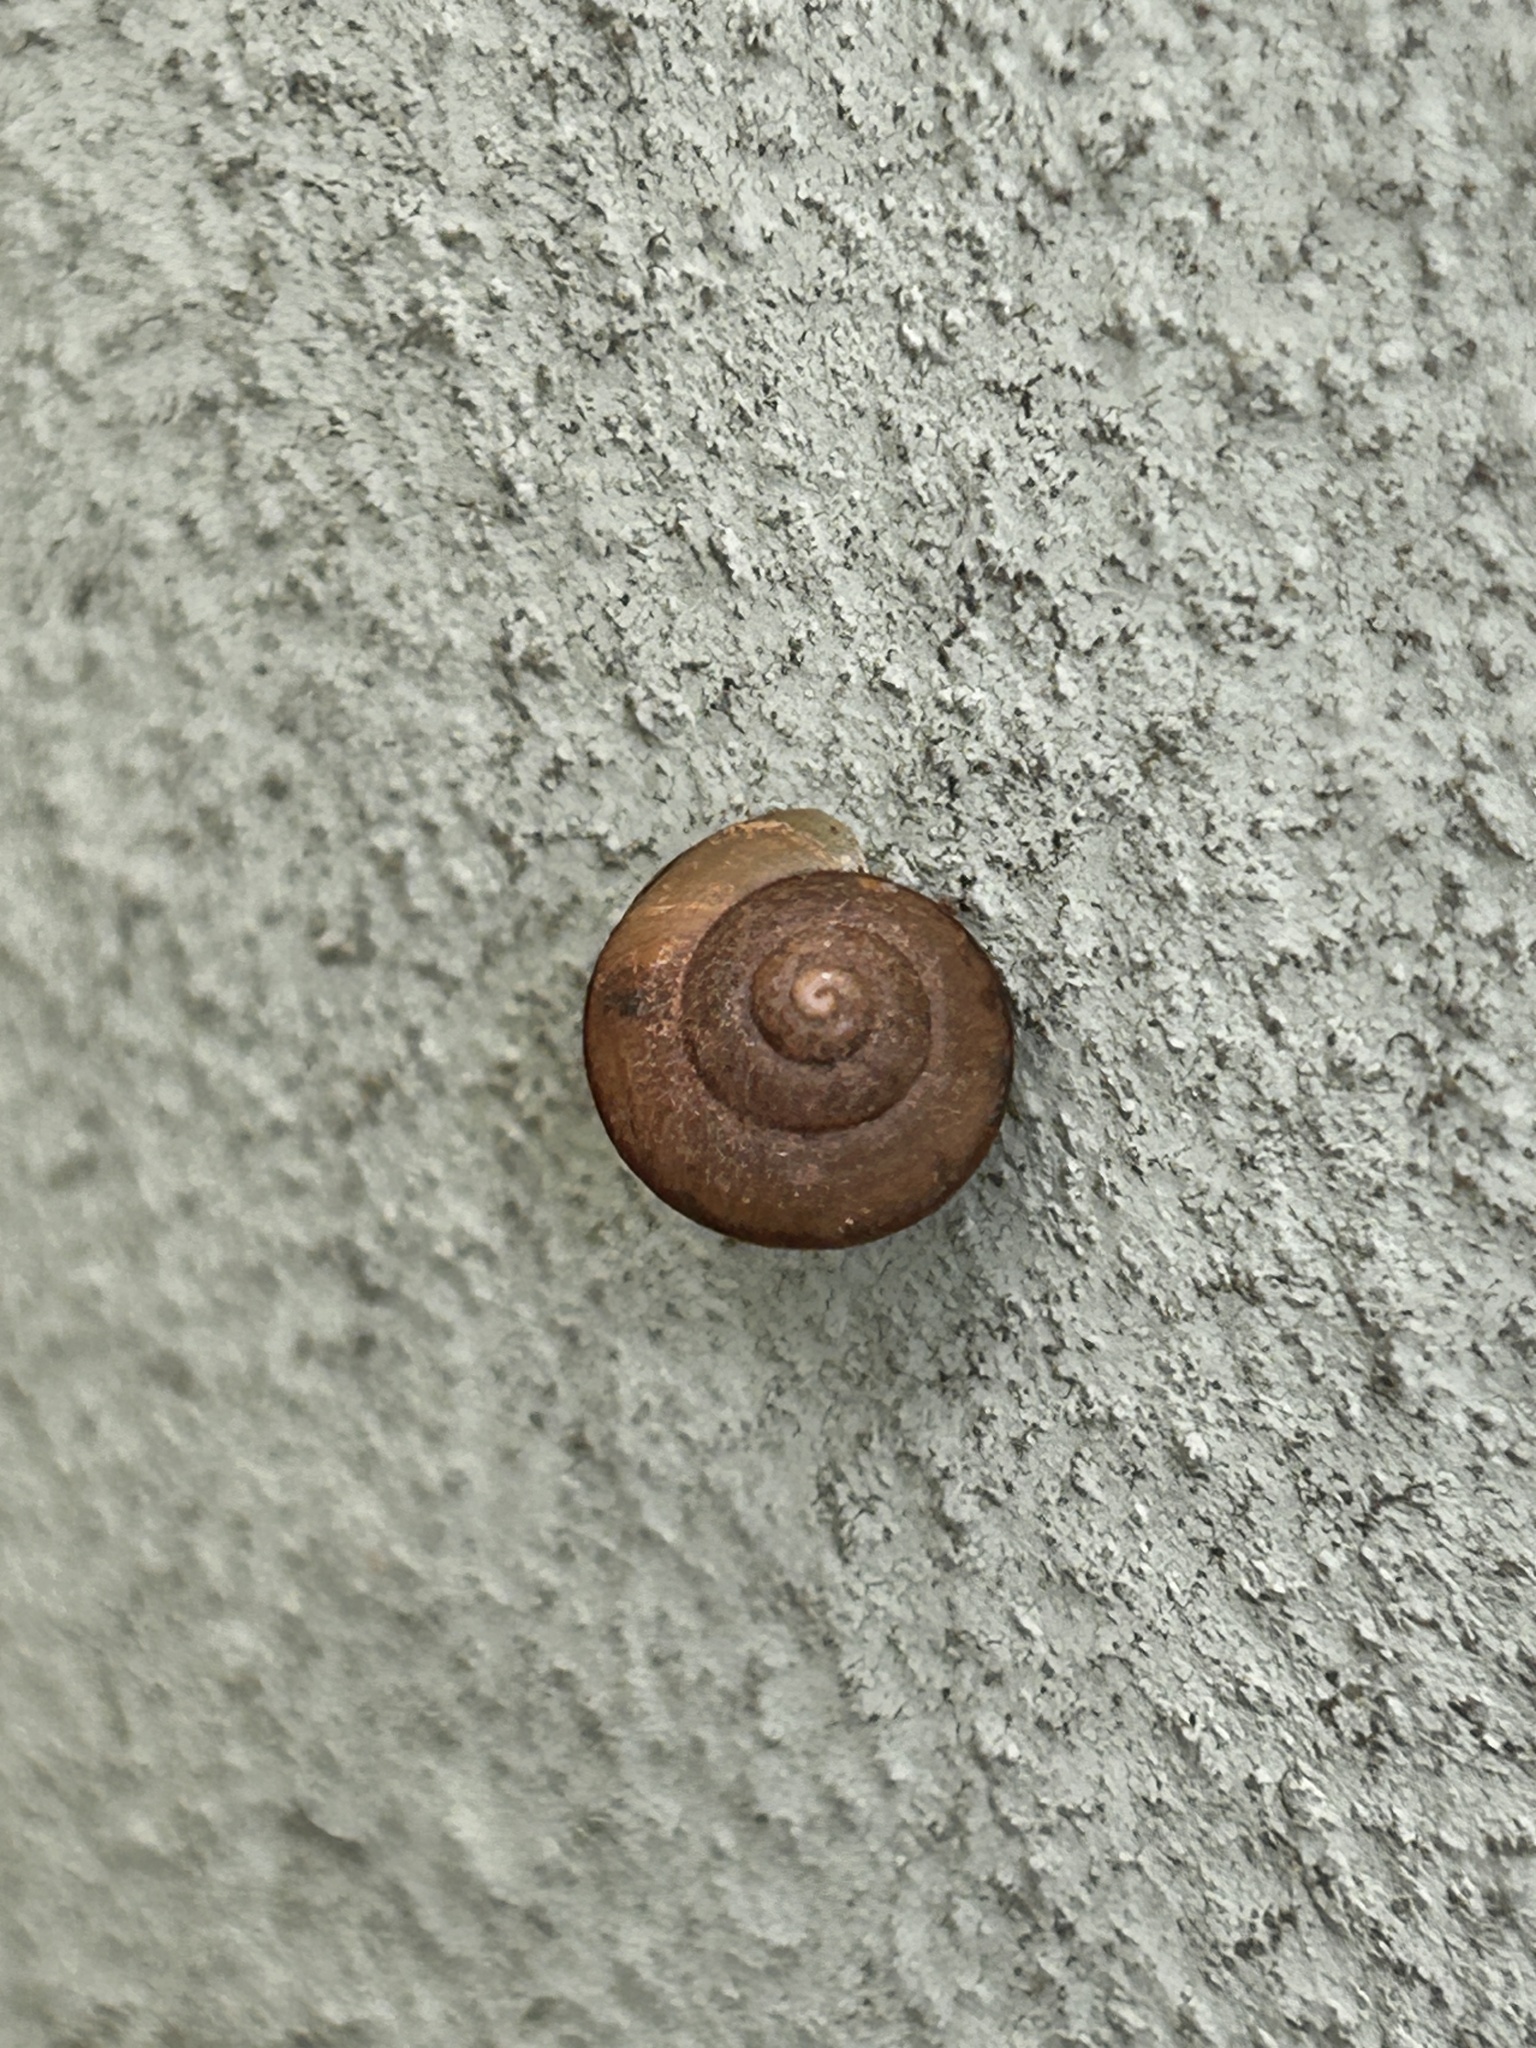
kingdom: Animalia
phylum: Mollusca
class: Gastropoda
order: Stylommatophora
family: Camaenidae
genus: Bradybaena
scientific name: Bradybaena similaris
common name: Asian trampsnail
